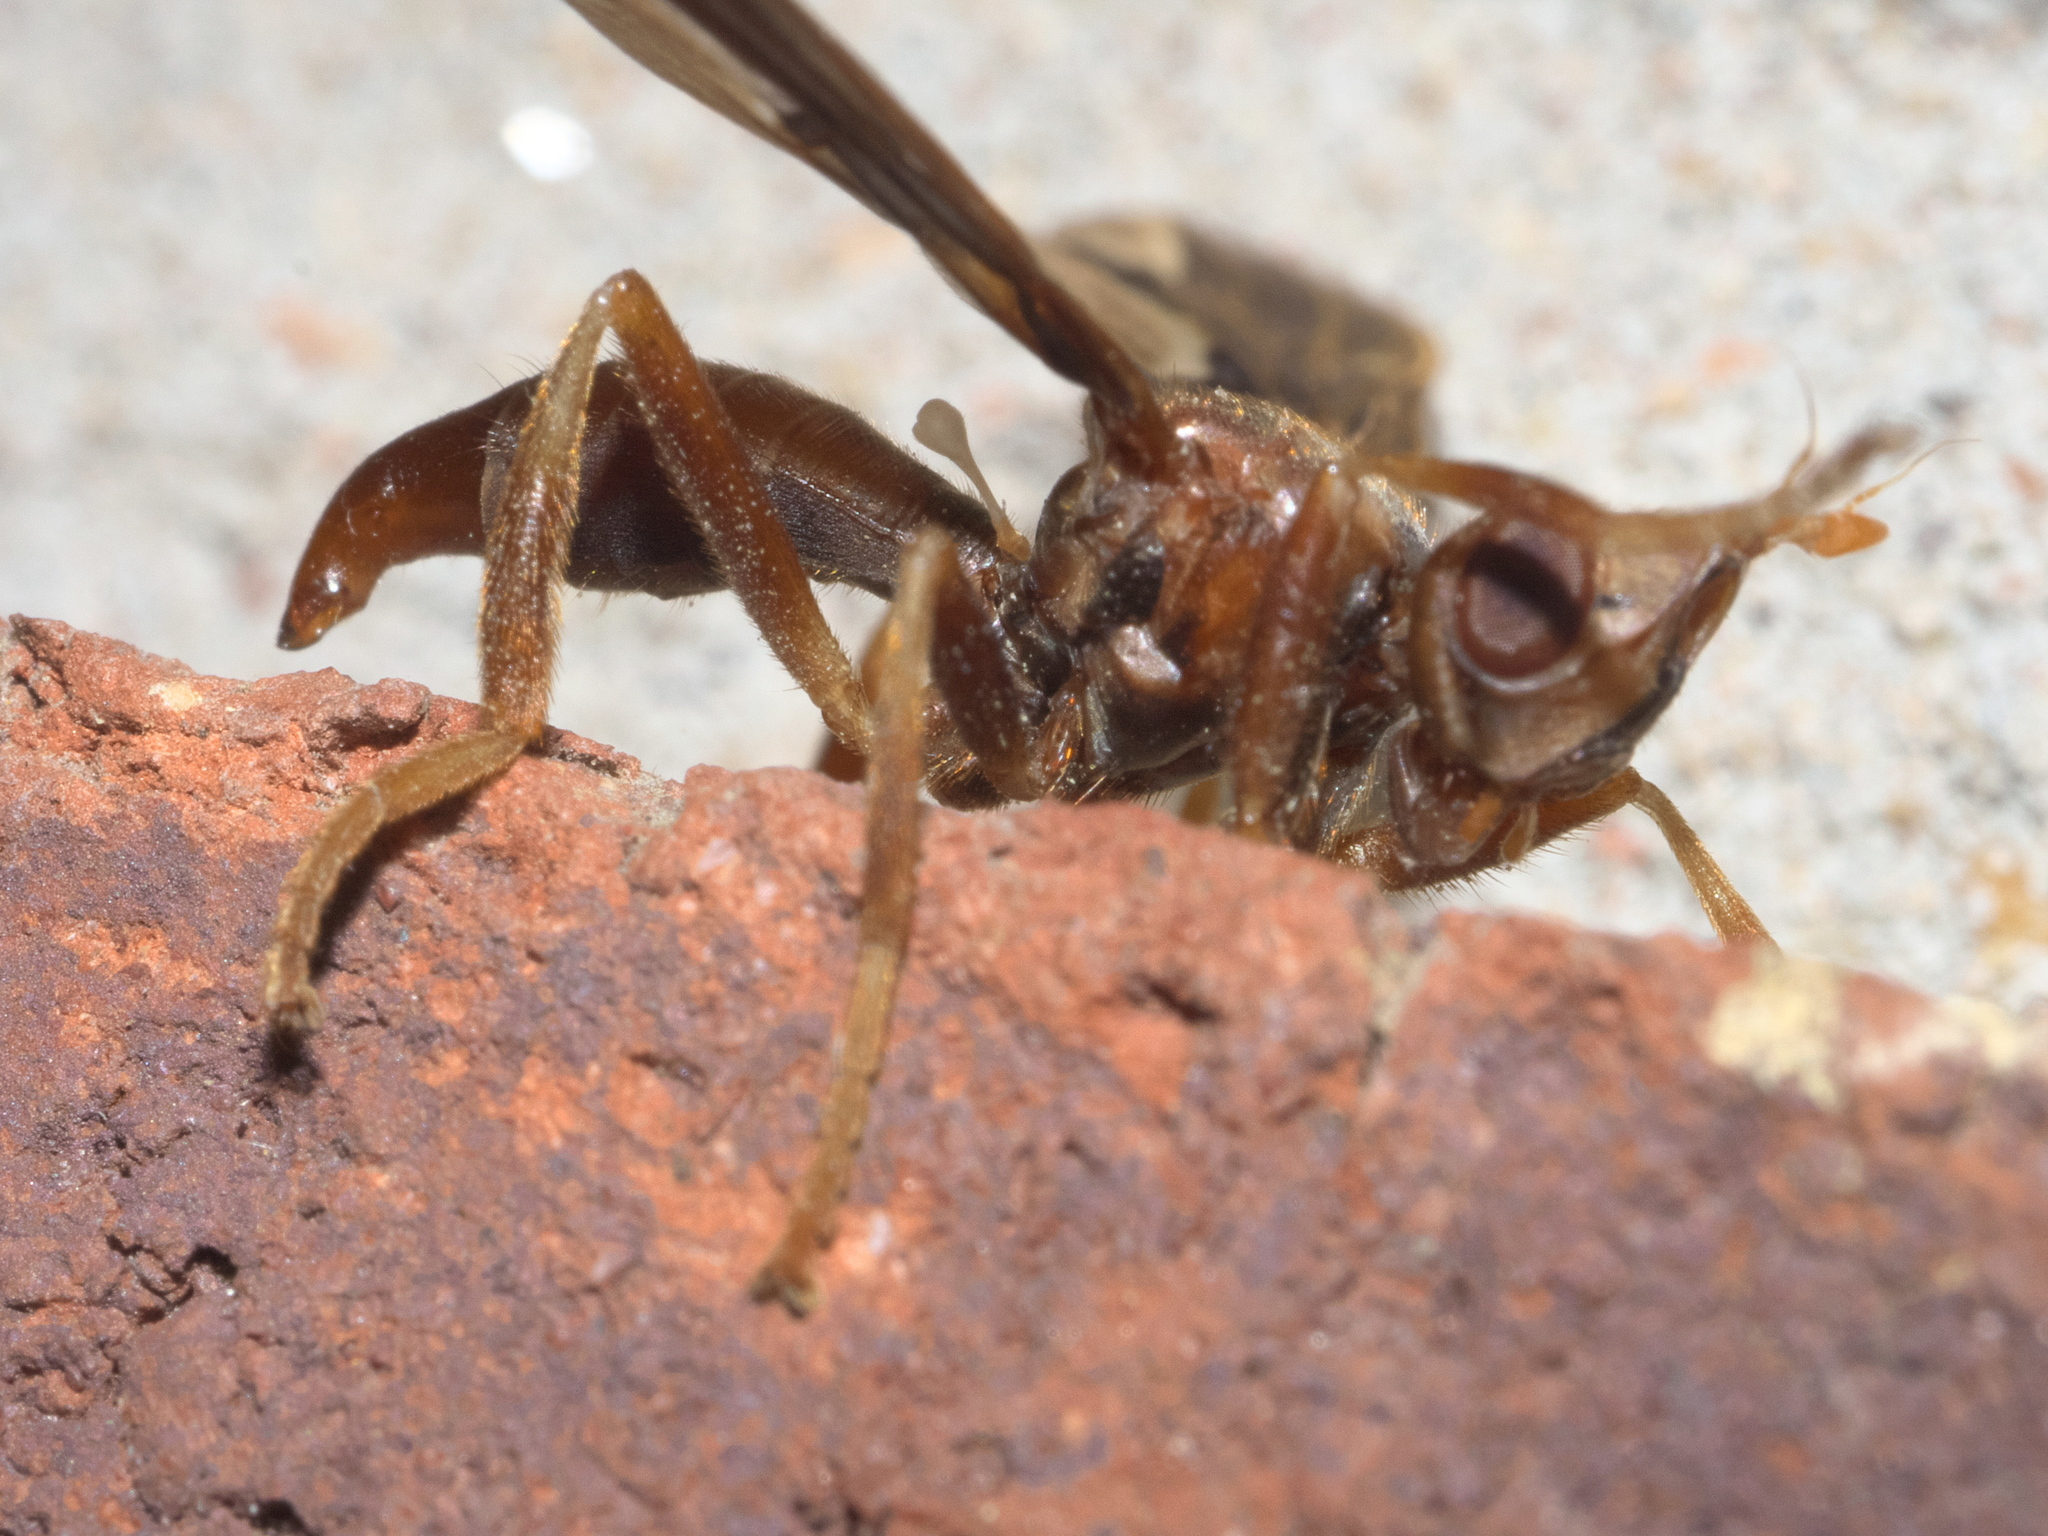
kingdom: Animalia
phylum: Arthropoda
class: Insecta
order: Diptera
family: Pyrgotidae
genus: Pyrgota
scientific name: Pyrgota undata
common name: Waved light fly
